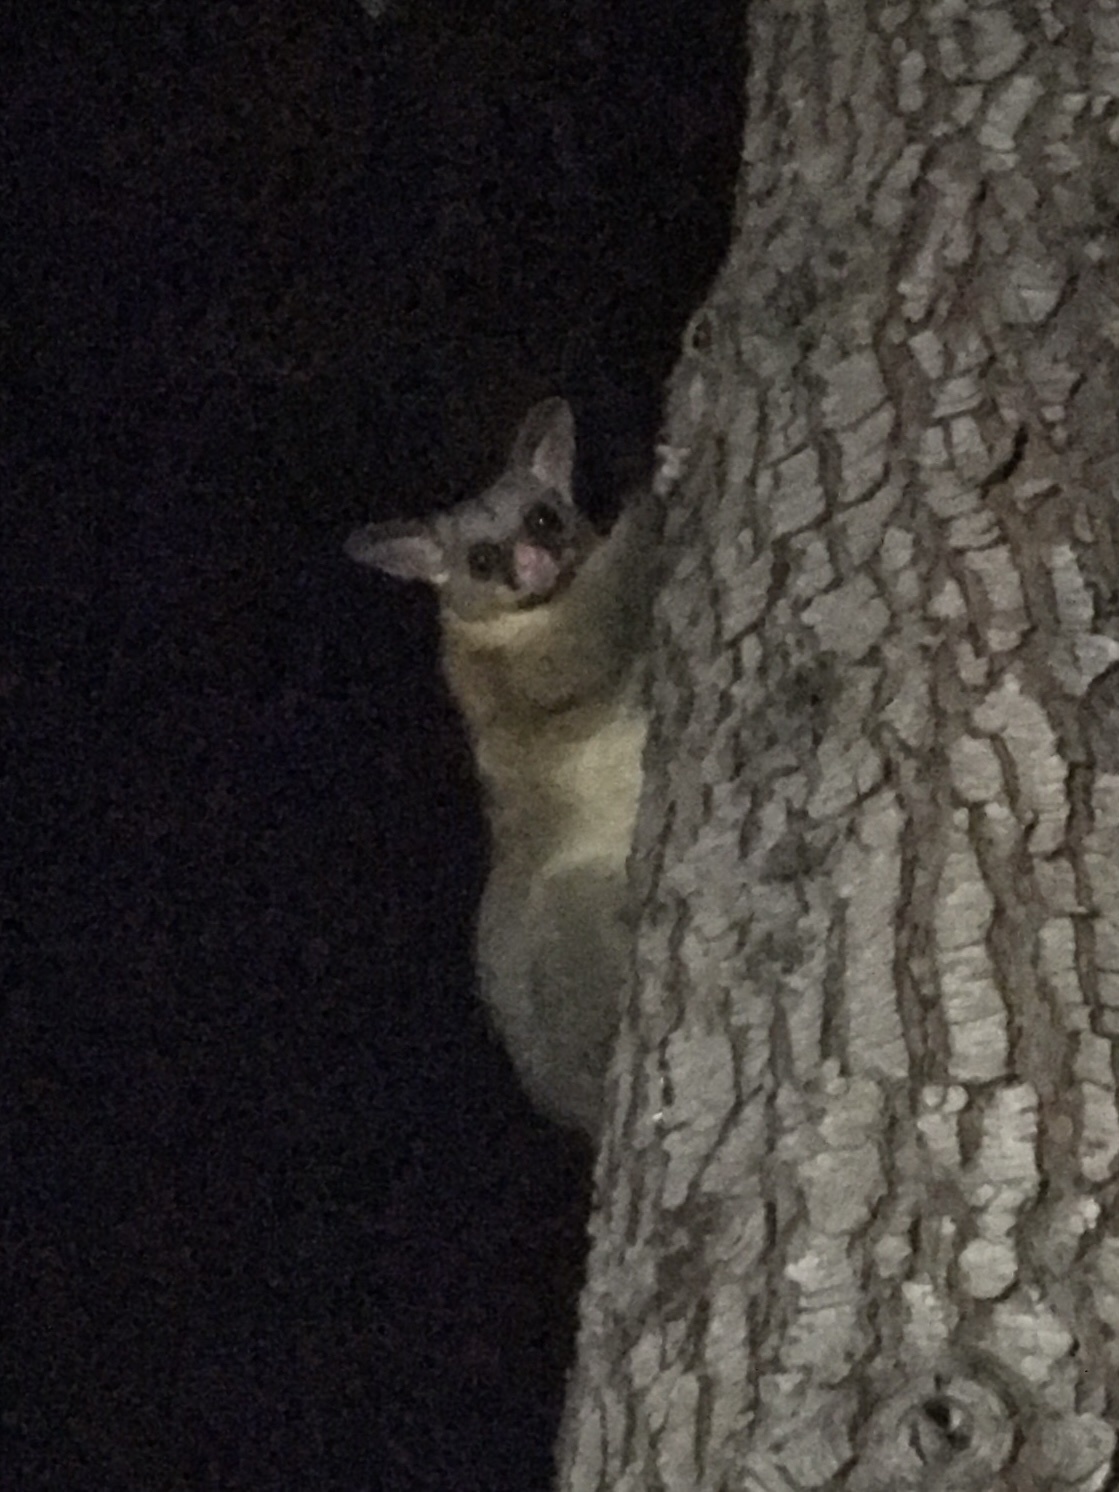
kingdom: Animalia
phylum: Chordata
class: Mammalia
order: Diprotodontia
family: Phalangeridae
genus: Trichosurus
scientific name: Trichosurus vulpecula
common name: Common brushtail
